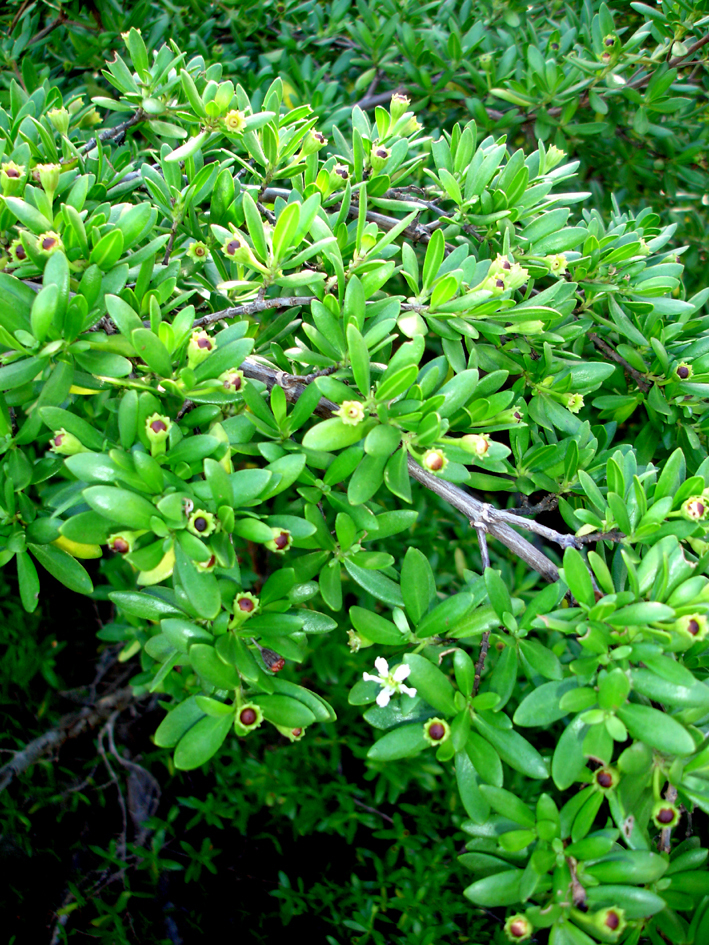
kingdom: Plantae
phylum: Tracheophyta
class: Magnoliopsida
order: Myrtales
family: Lythraceae
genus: Pemphis
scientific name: Pemphis acidula
